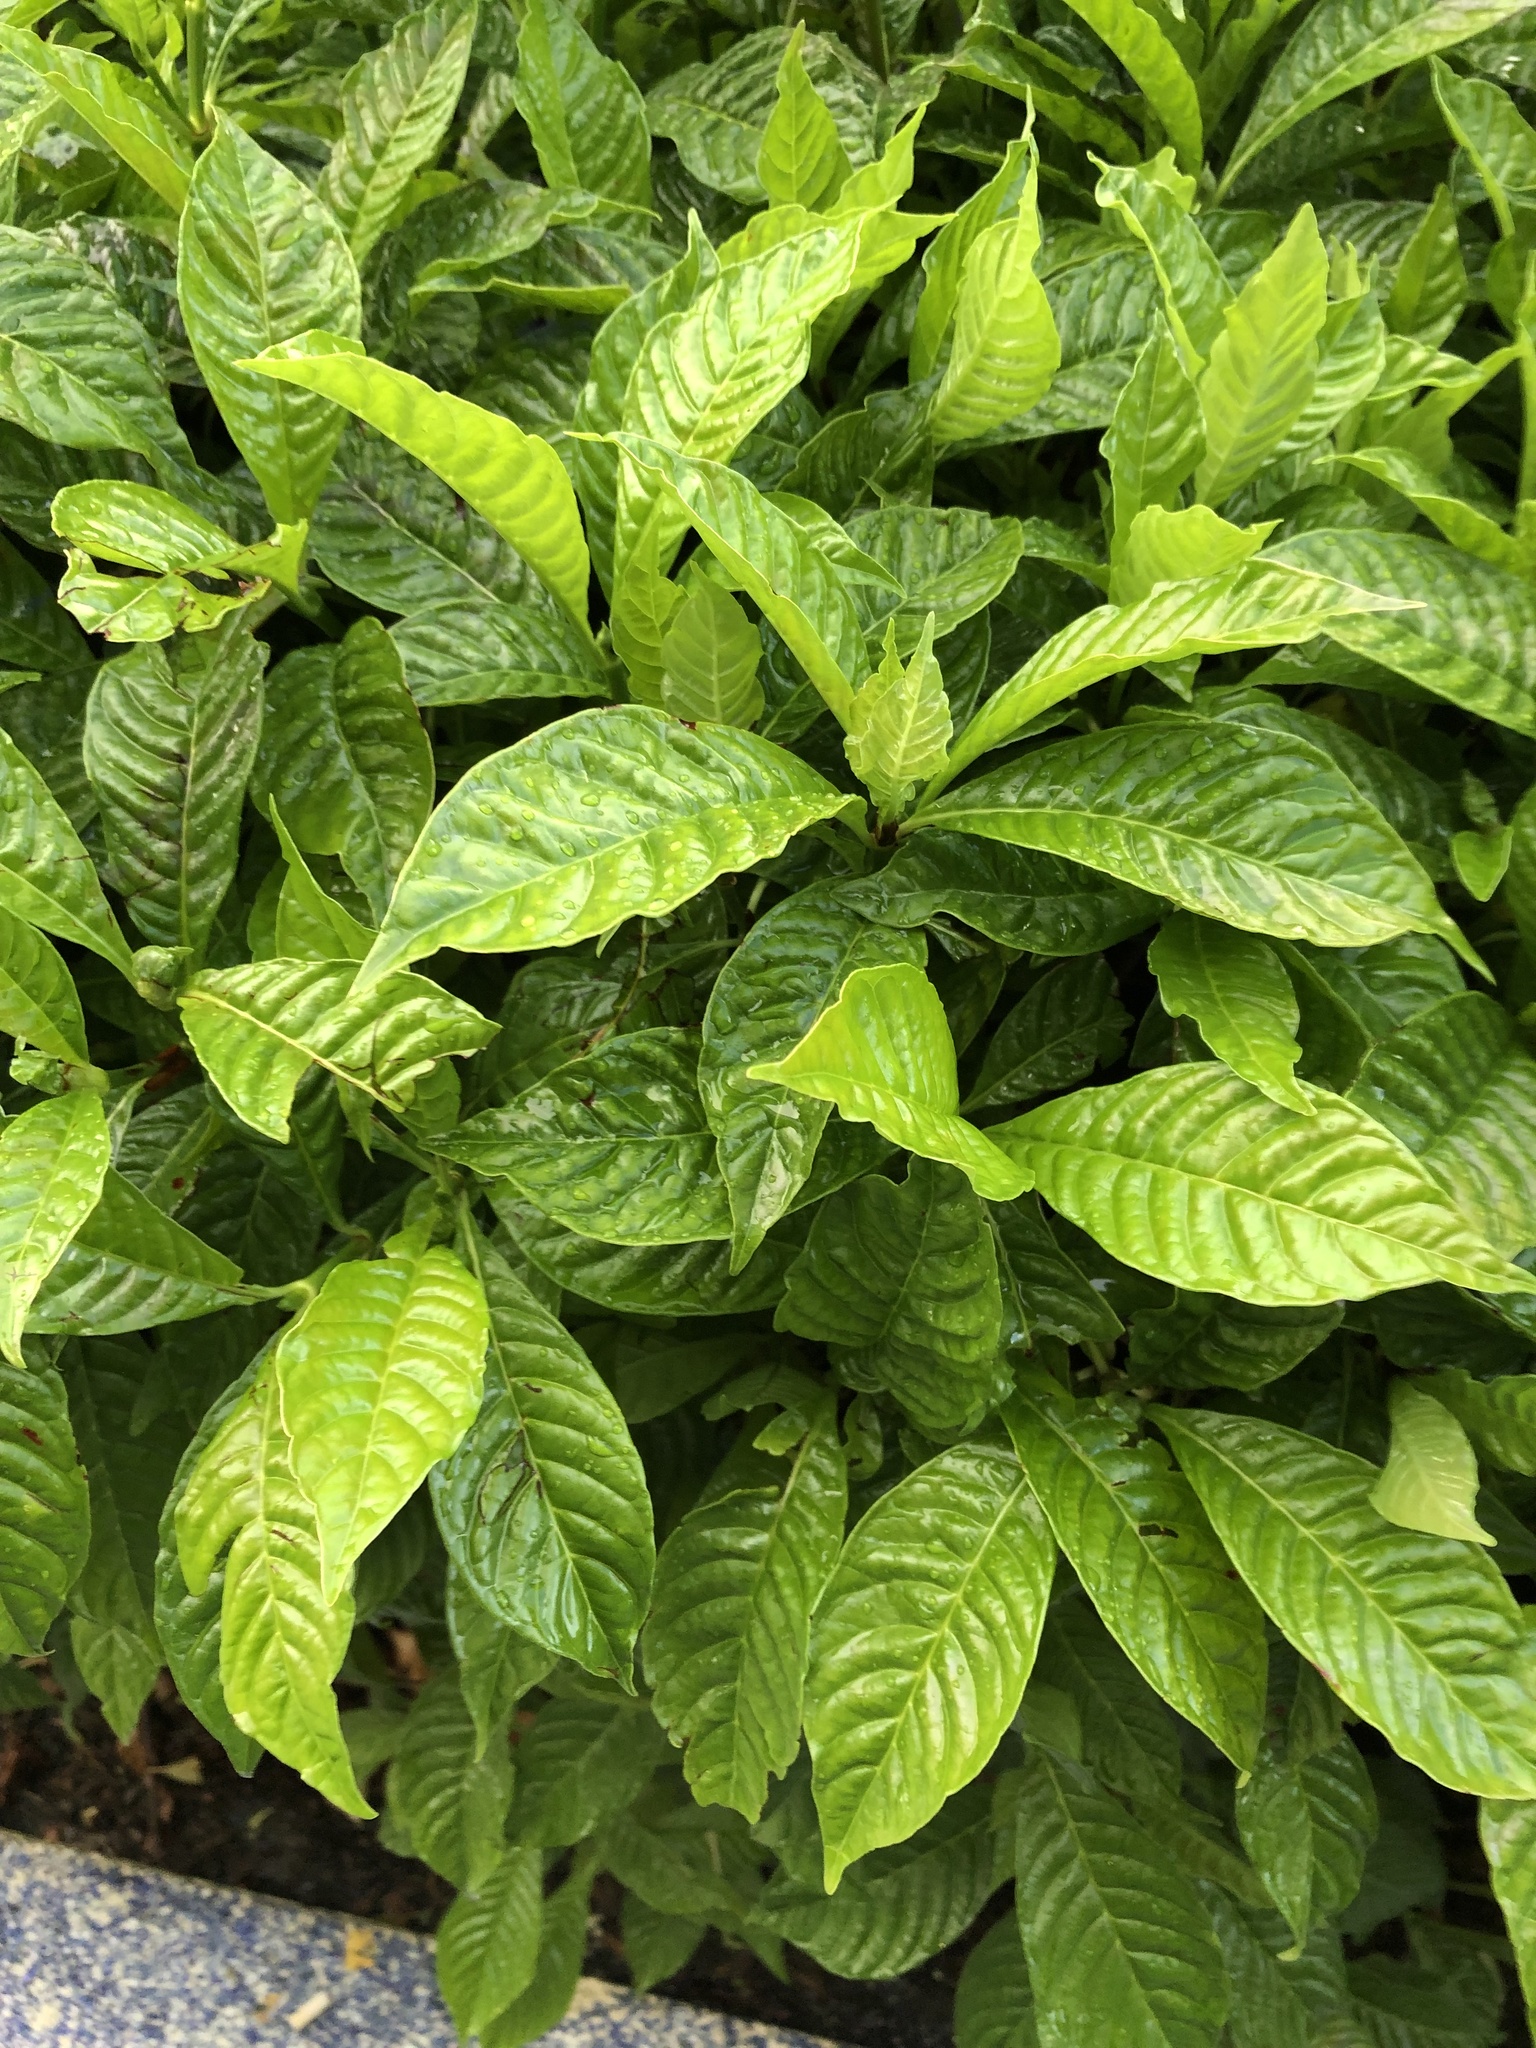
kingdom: Plantae
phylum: Tracheophyta
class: Magnoliopsida
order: Gentianales
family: Rubiaceae
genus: Psychotria
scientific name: Psychotria nervosa
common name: Bastard cankerberry
